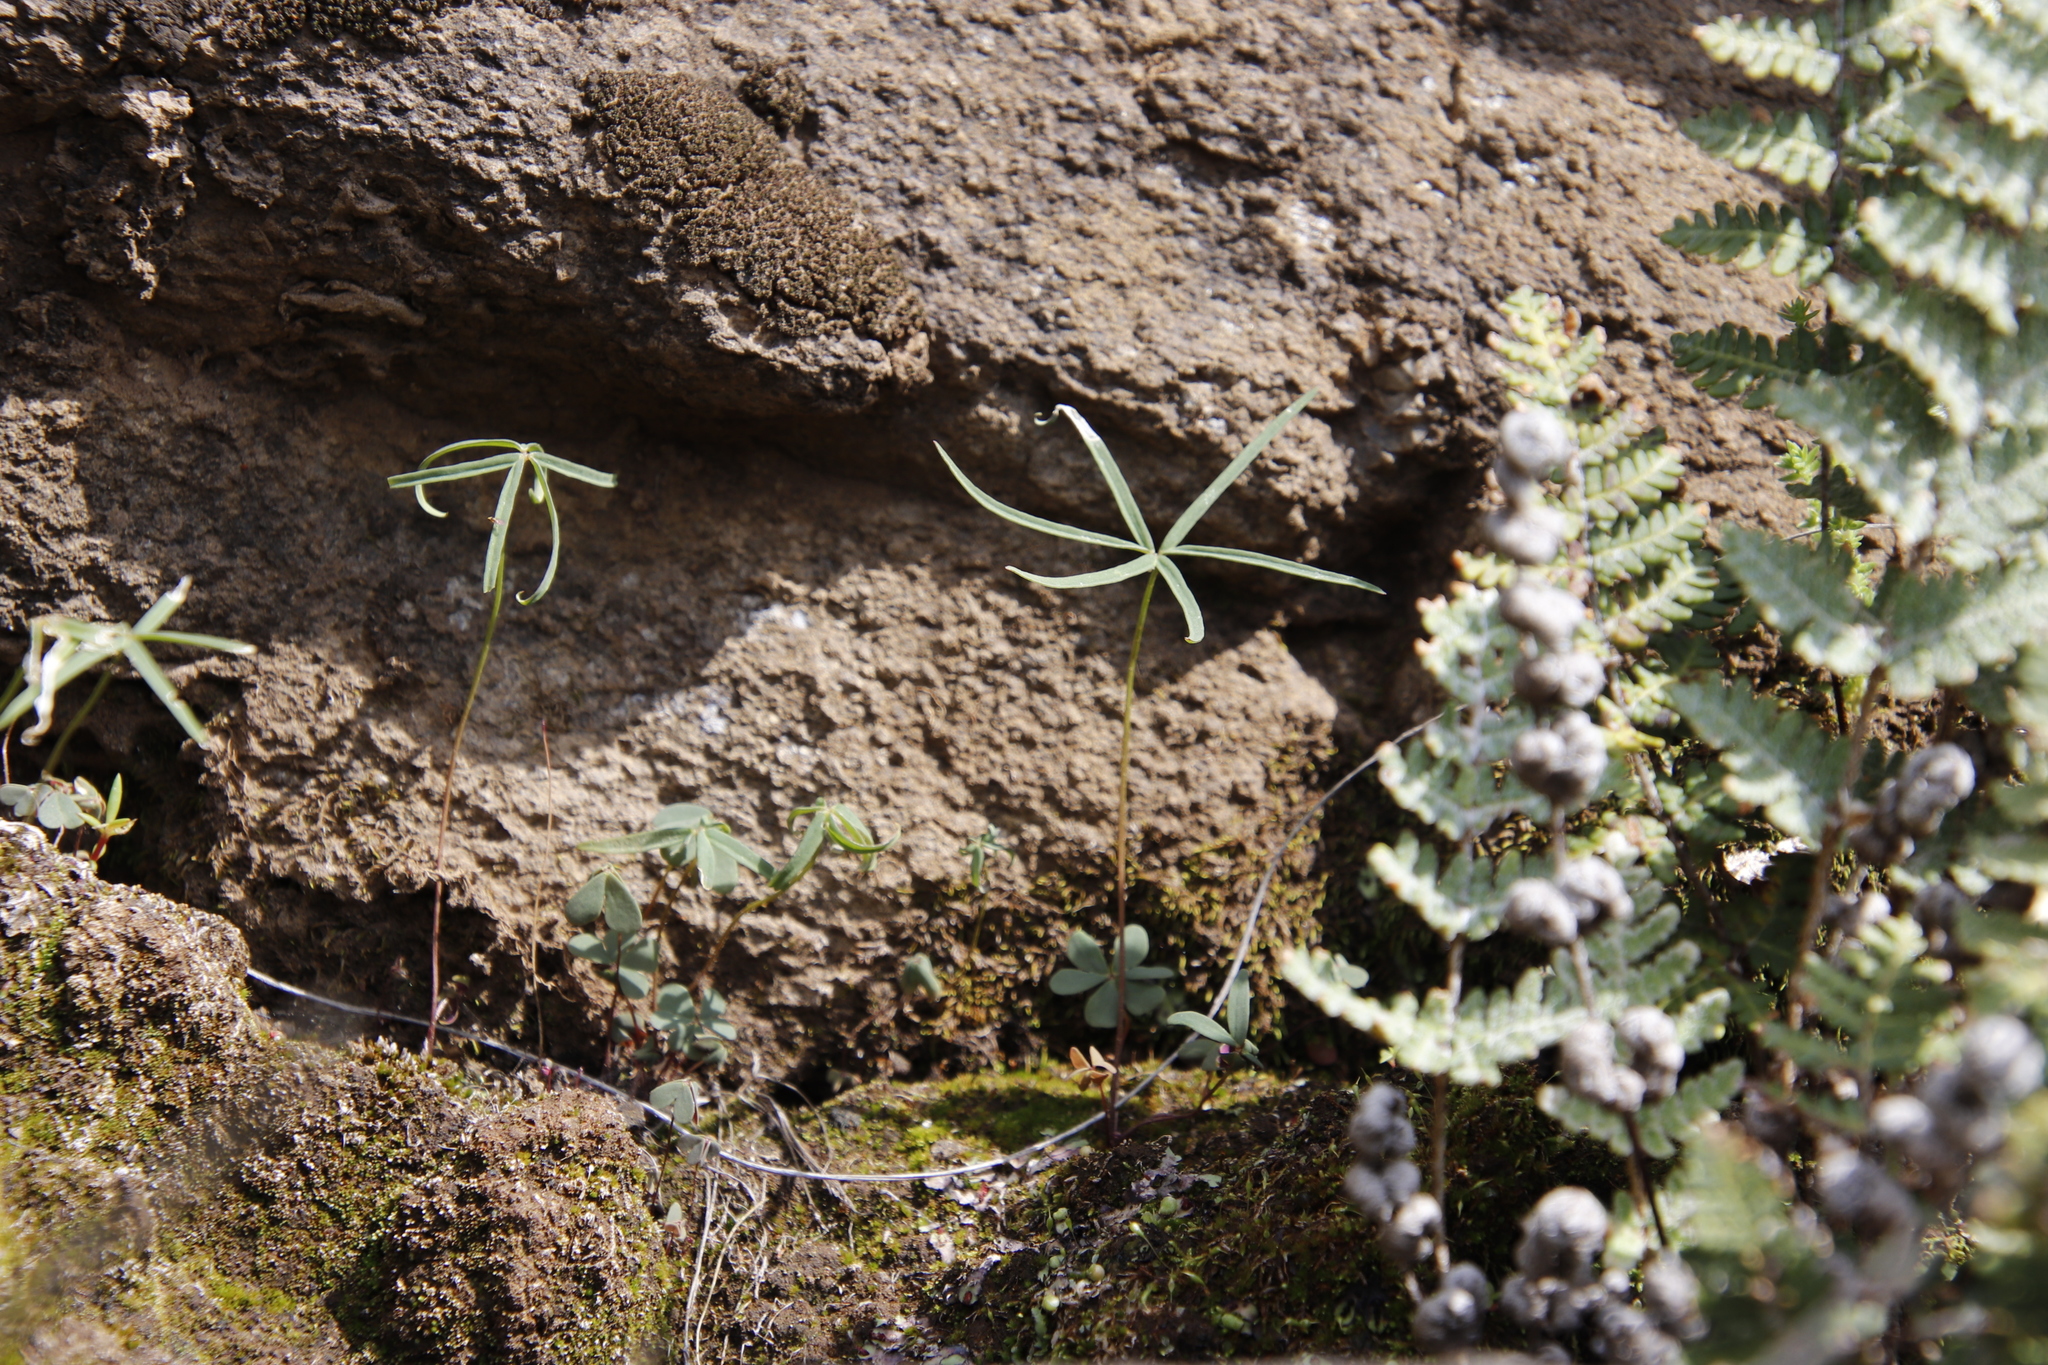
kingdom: Plantae
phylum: Tracheophyta
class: Magnoliopsida
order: Oxalidales
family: Oxalidaceae
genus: Oxalis
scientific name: Oxalis smithiana
